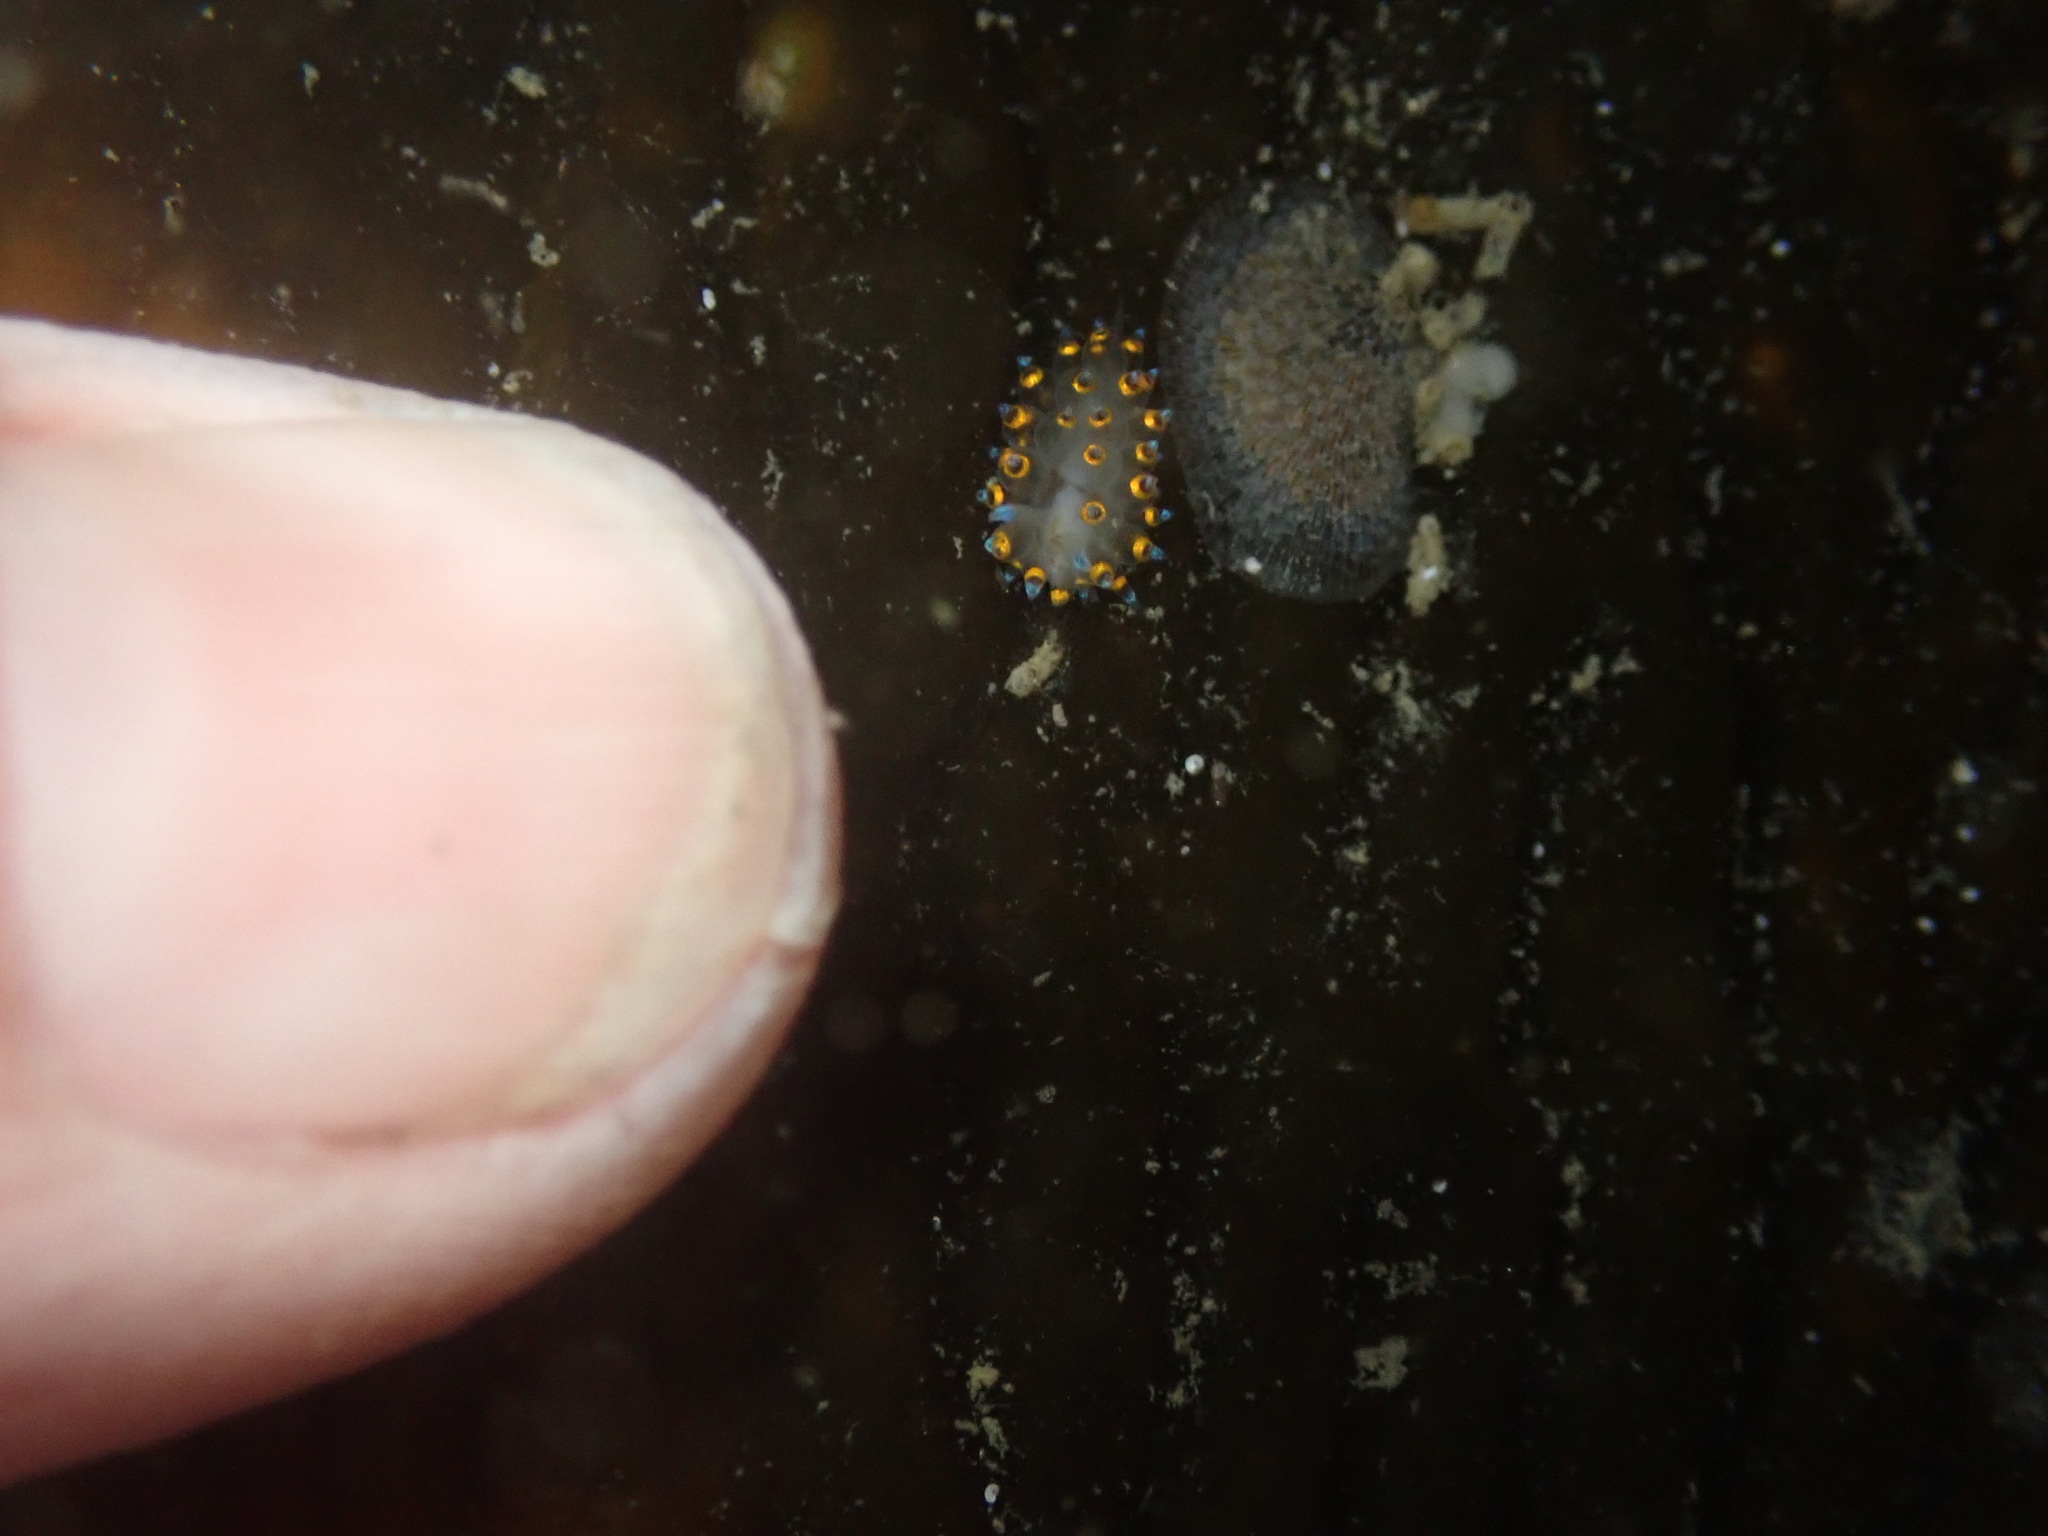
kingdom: Animalia
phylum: Mollusca
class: Gastropoda
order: Nudibranchia
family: Janolidae
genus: Antiopella
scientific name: Antiopella barbarensis
